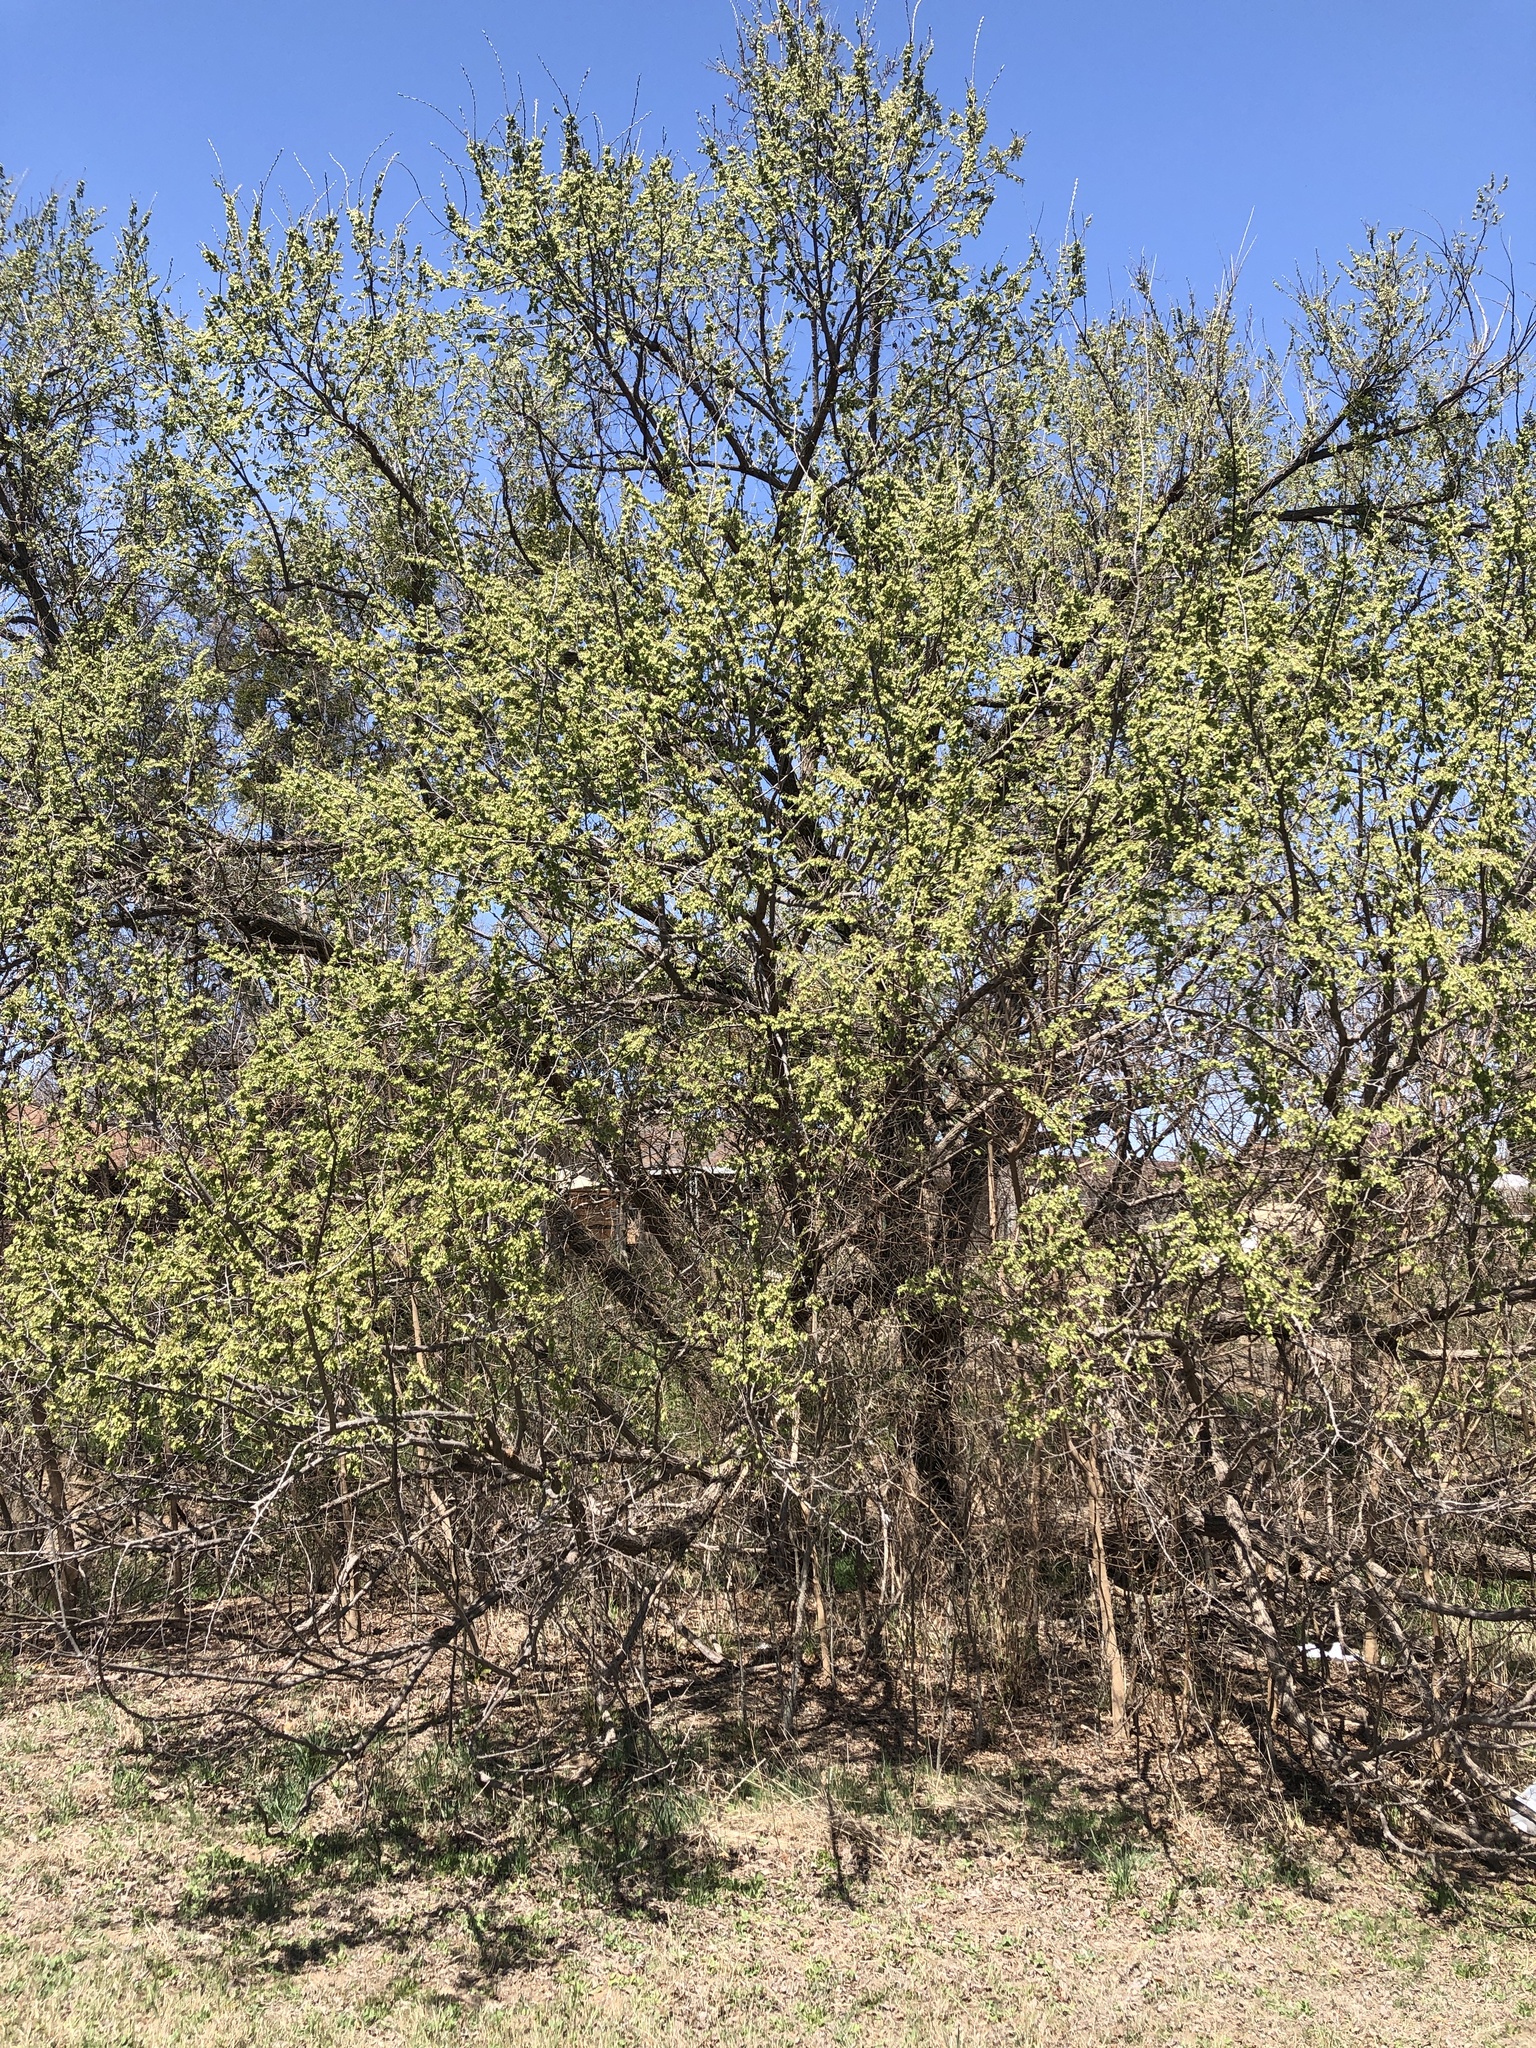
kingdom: Plantae
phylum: Tracheophyta
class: Magnoliopsida
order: Rosales
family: Ulmaceae
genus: Ulmus
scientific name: Ulmus americana
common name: American elm
